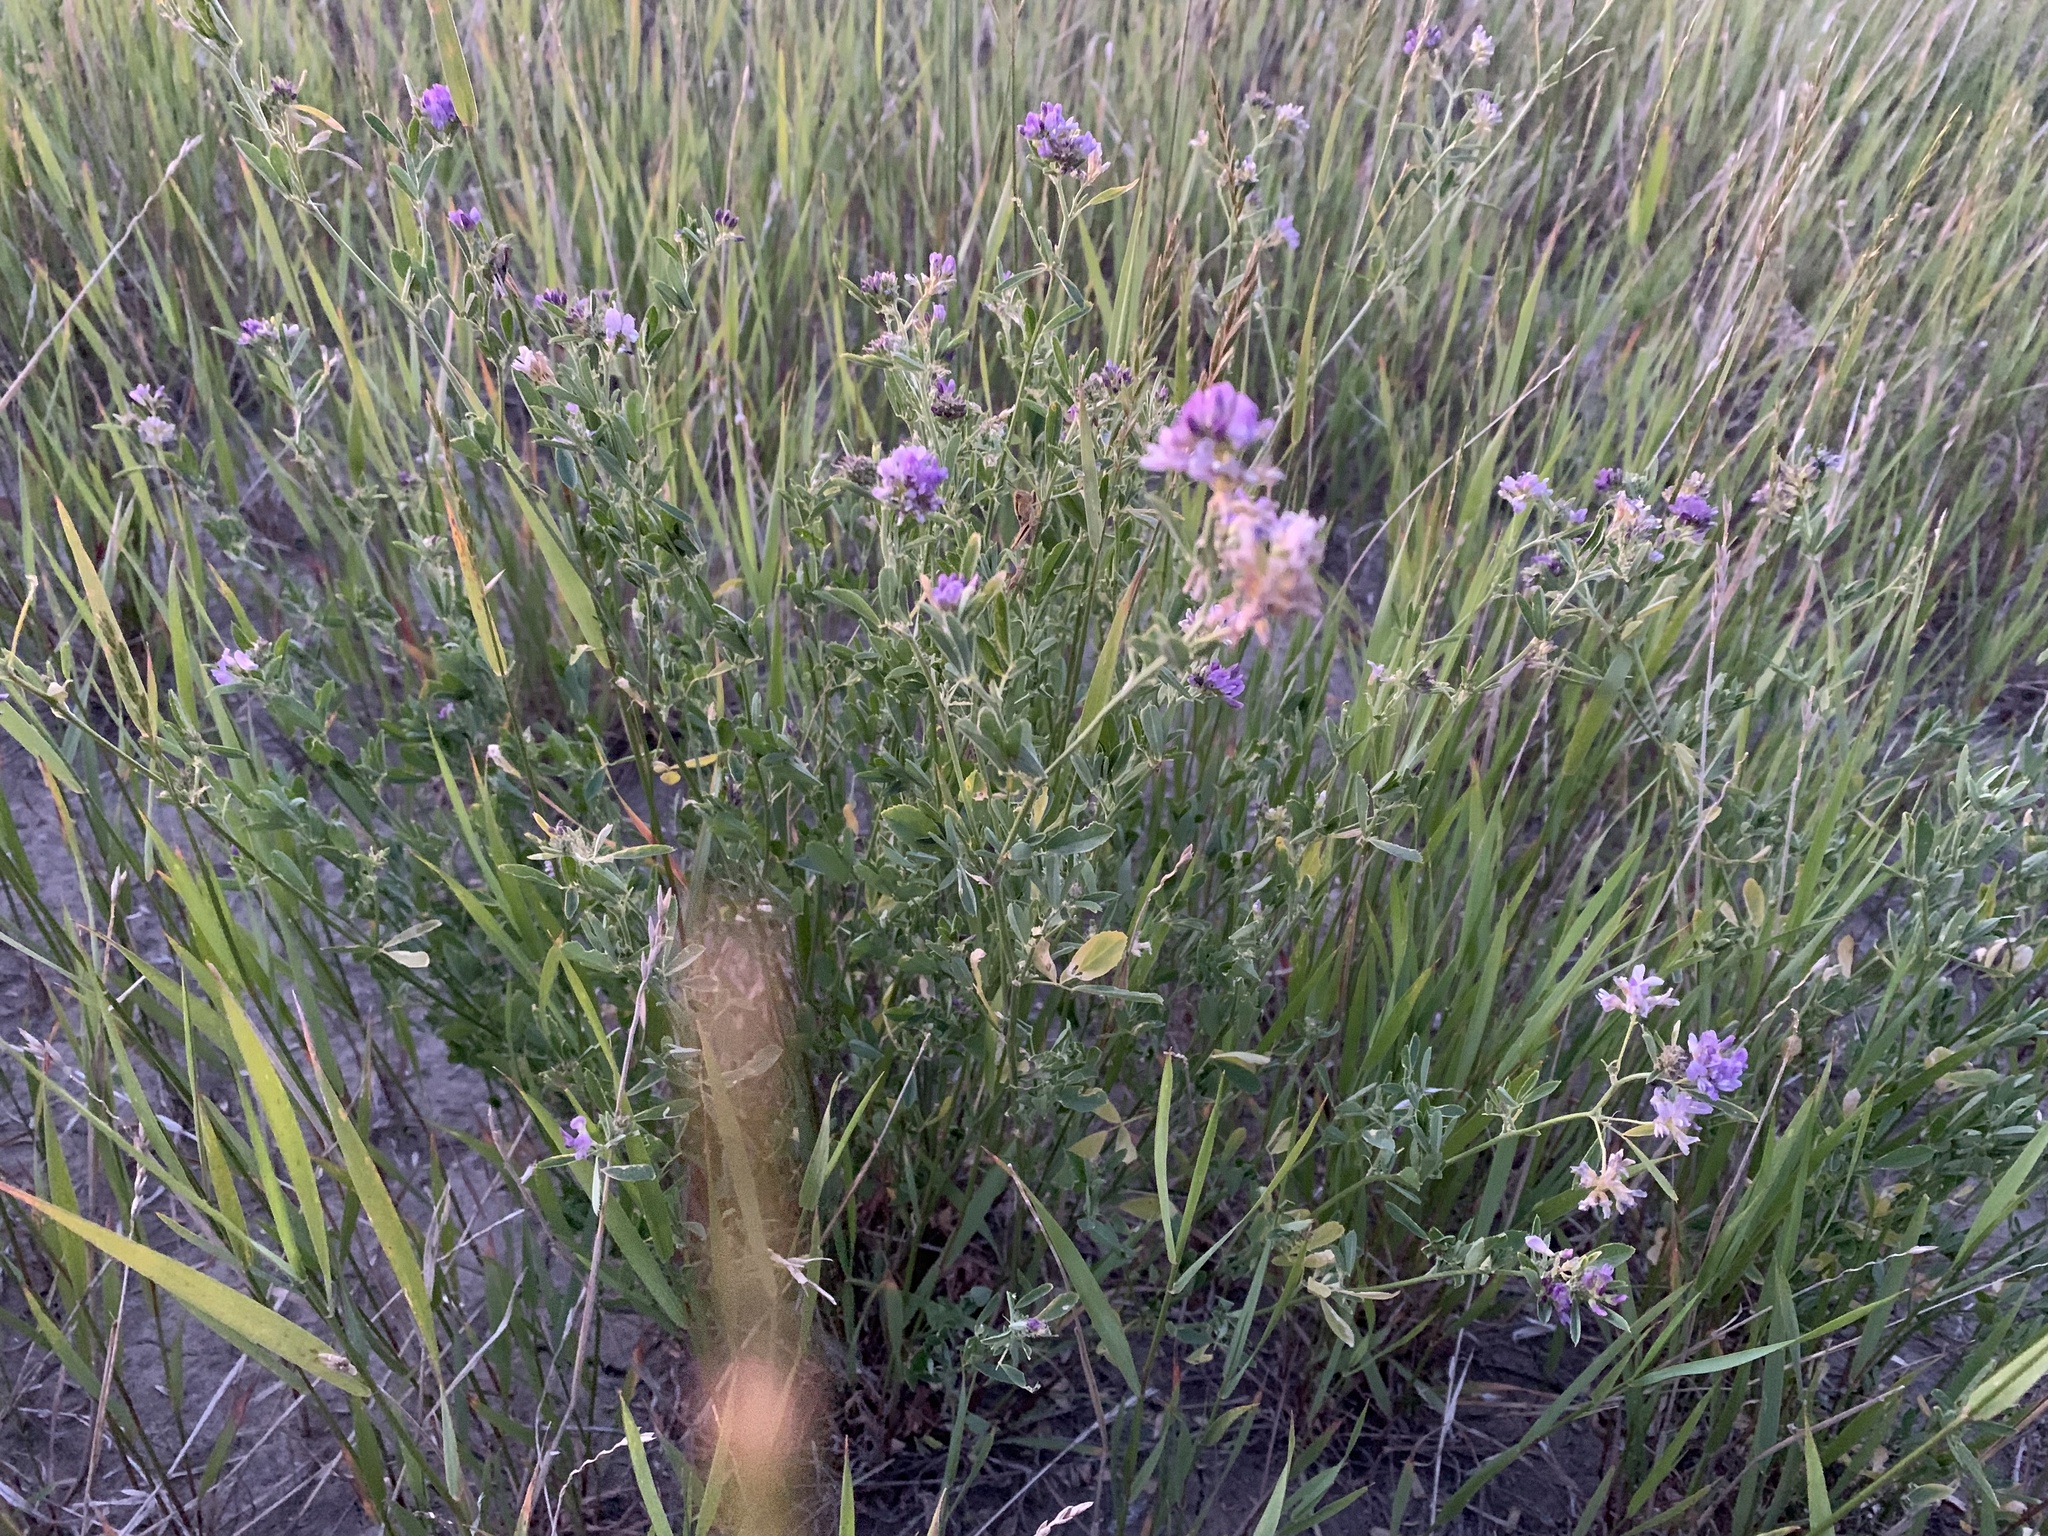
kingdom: Plantae
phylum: Tracheophyta
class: Magnoliopsida
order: Fabales
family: Fabaceae
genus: Medicago
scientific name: Medicago sativa
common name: Alfalfa
